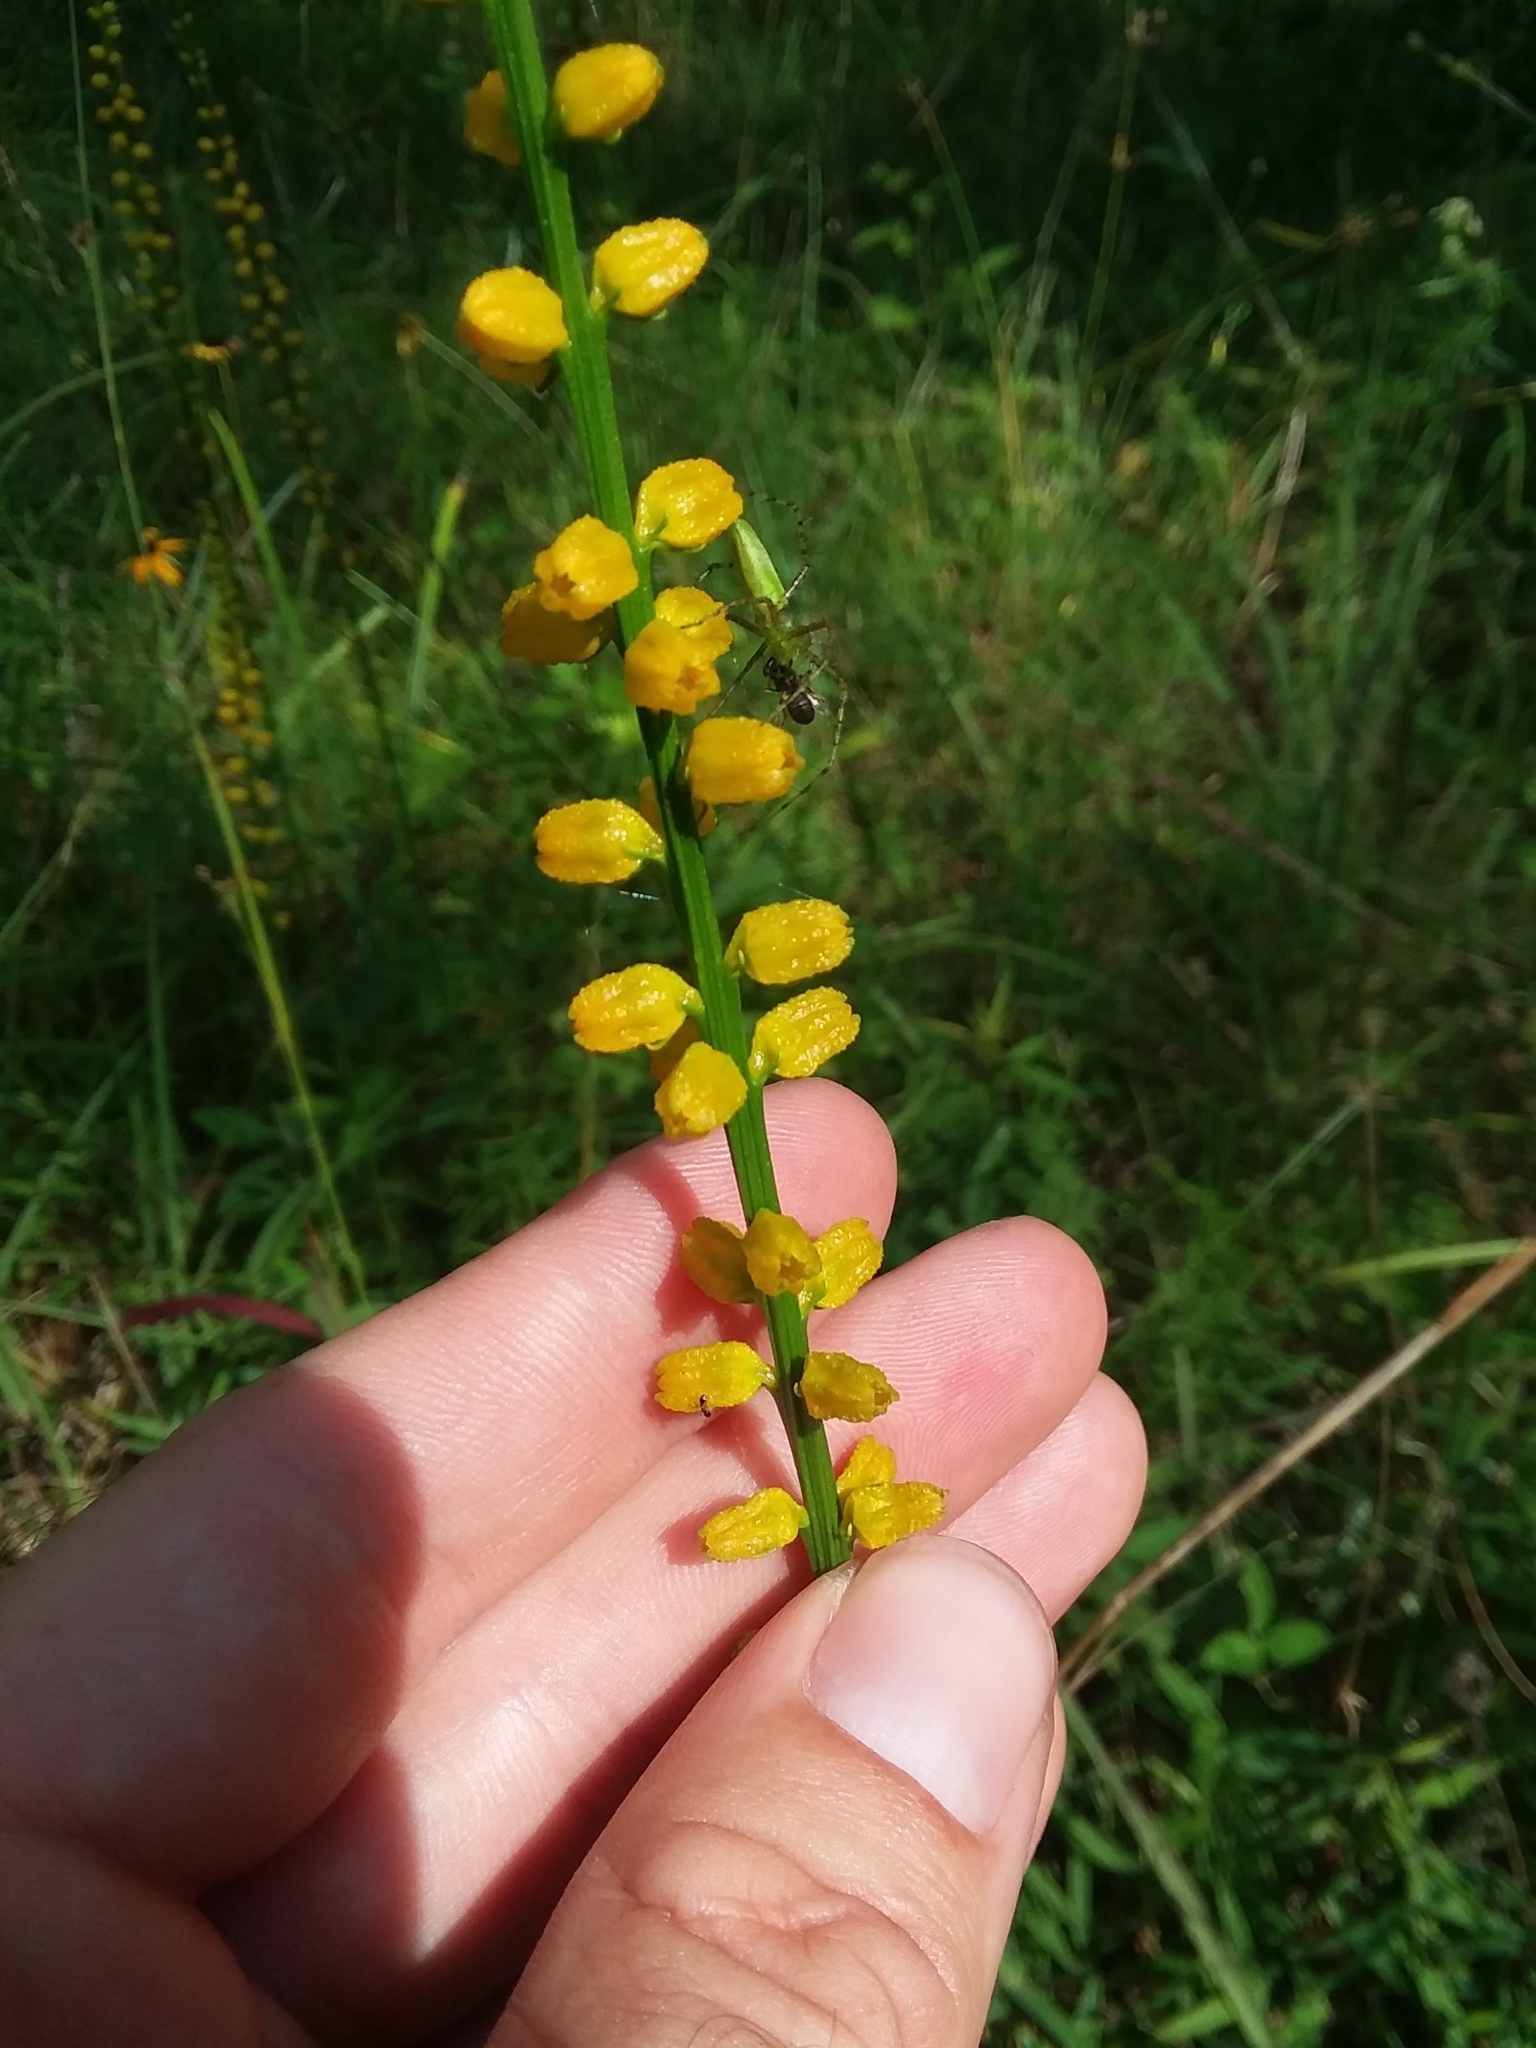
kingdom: Plantae
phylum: Tracheophyta
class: Liliopsida
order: Dioscoreales
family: Nartheciaceae
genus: Aletris
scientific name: Aletris aurea
